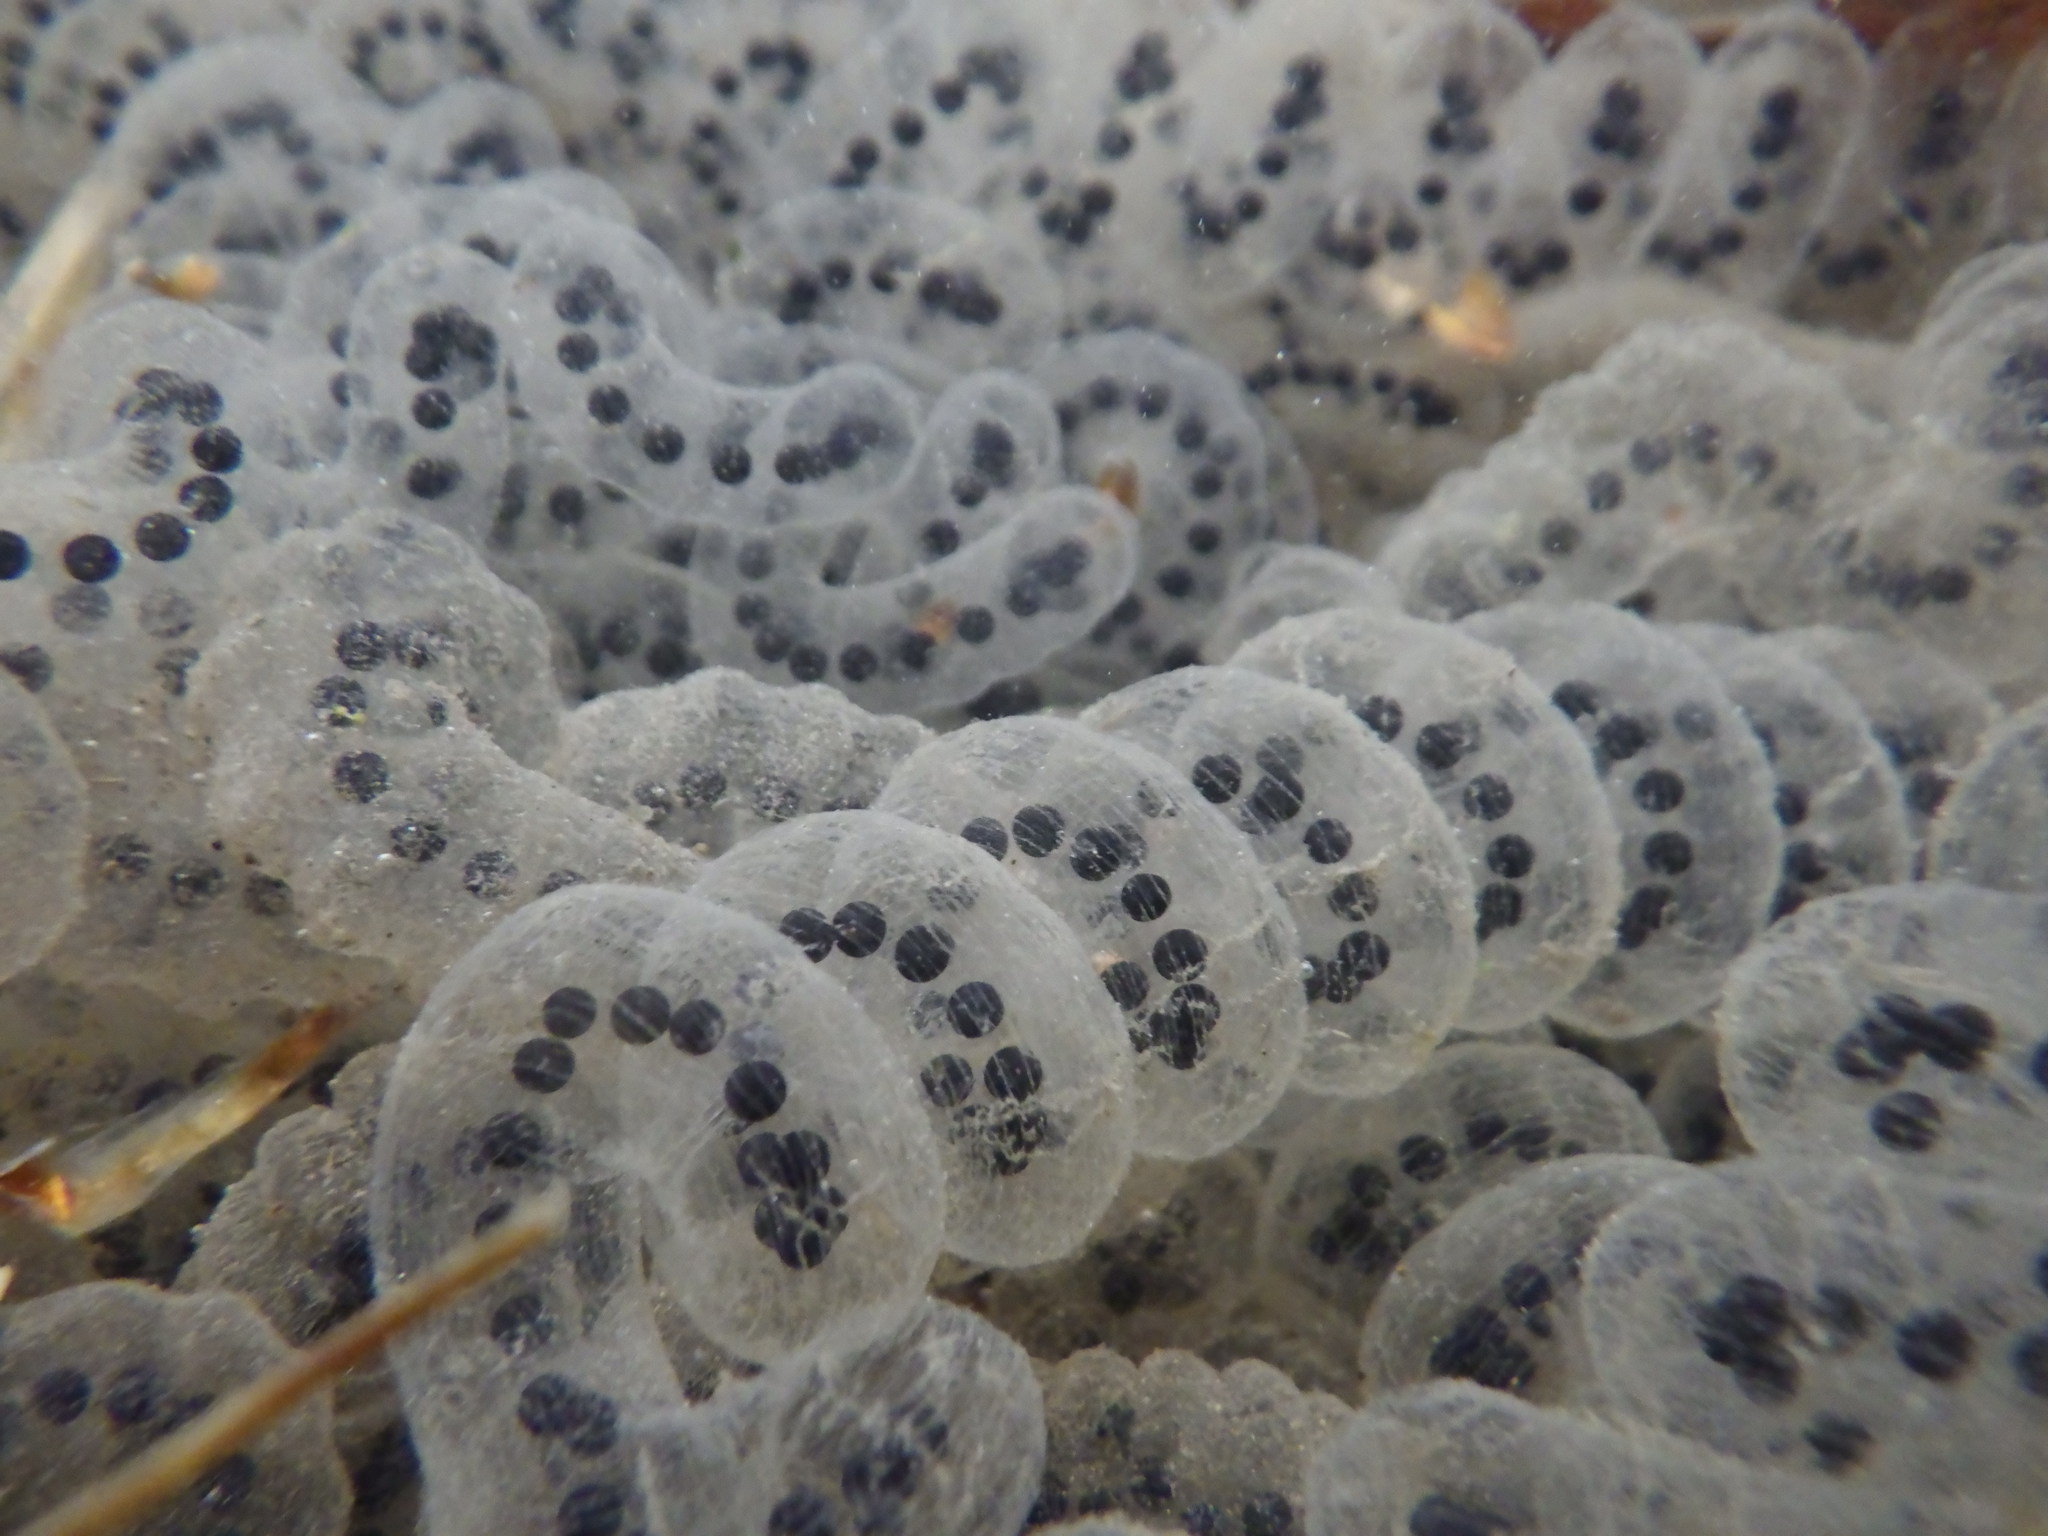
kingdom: Animalia
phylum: Chordata
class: Amphibia
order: Anura
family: Bufonidae
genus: Anaxyrus
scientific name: Anaxyrus americanus
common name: American toad
